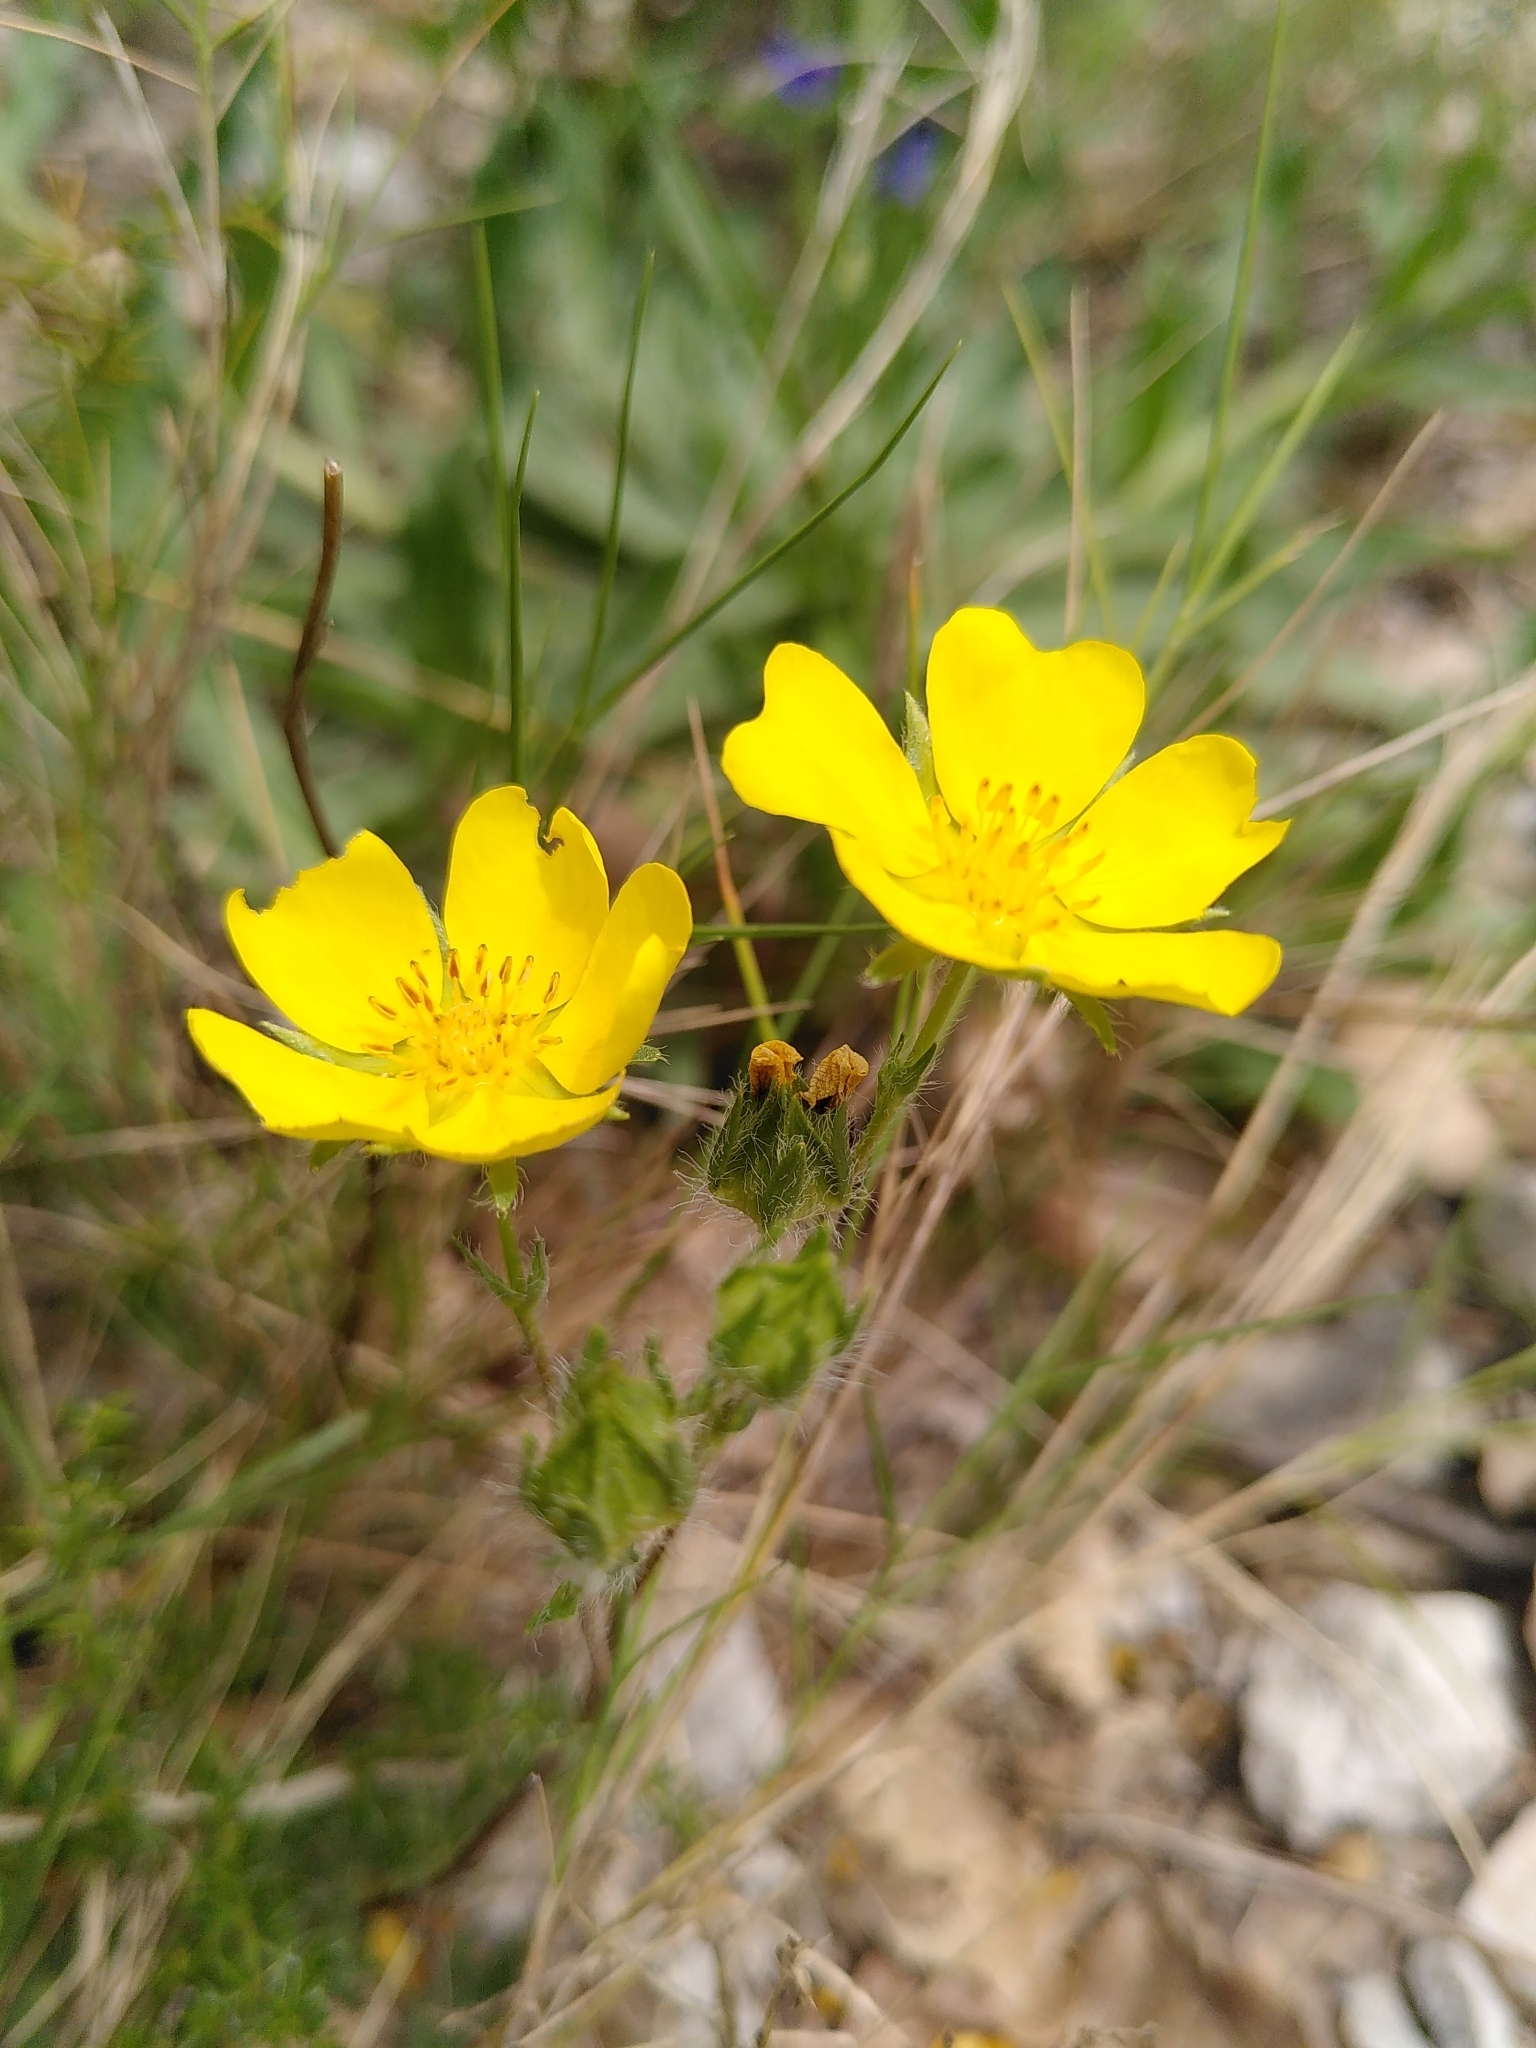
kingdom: Plantae
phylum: Tracheophyta
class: Magnoliopsida
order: Rosales
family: Rosaceae
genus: Potentilla
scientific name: Potentilla hirta
